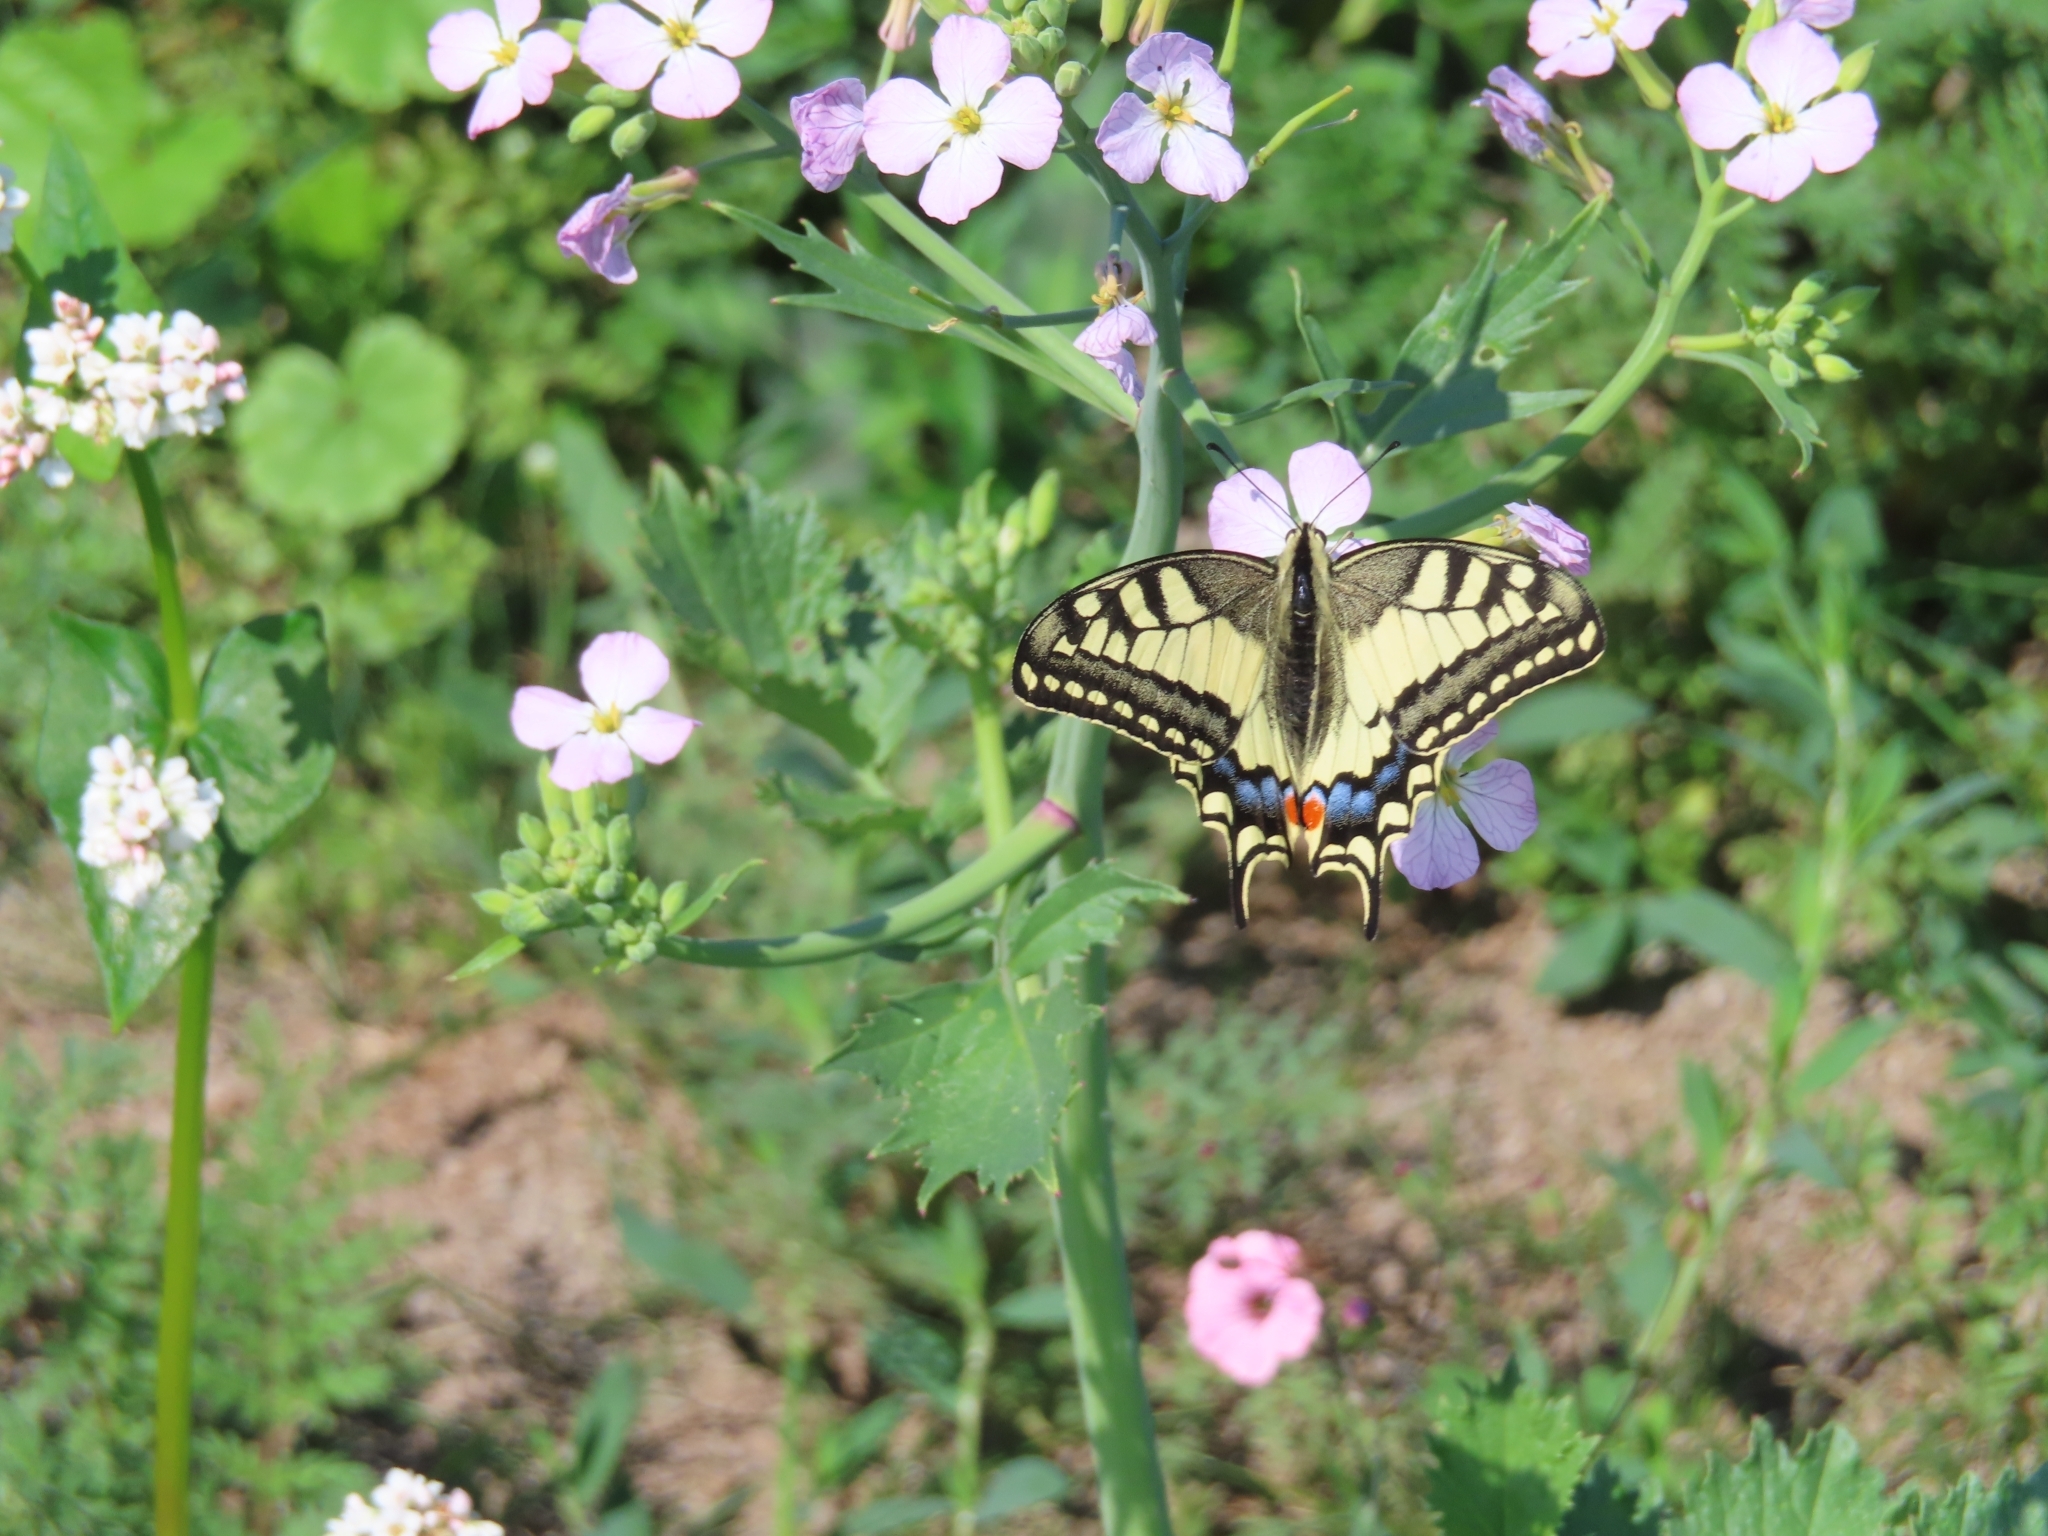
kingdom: Animalia
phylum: Arthropoda
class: Insecta
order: Lepidoptera
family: Papilionidae
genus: Papilio
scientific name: Papilio machaon
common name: Swallowtail
